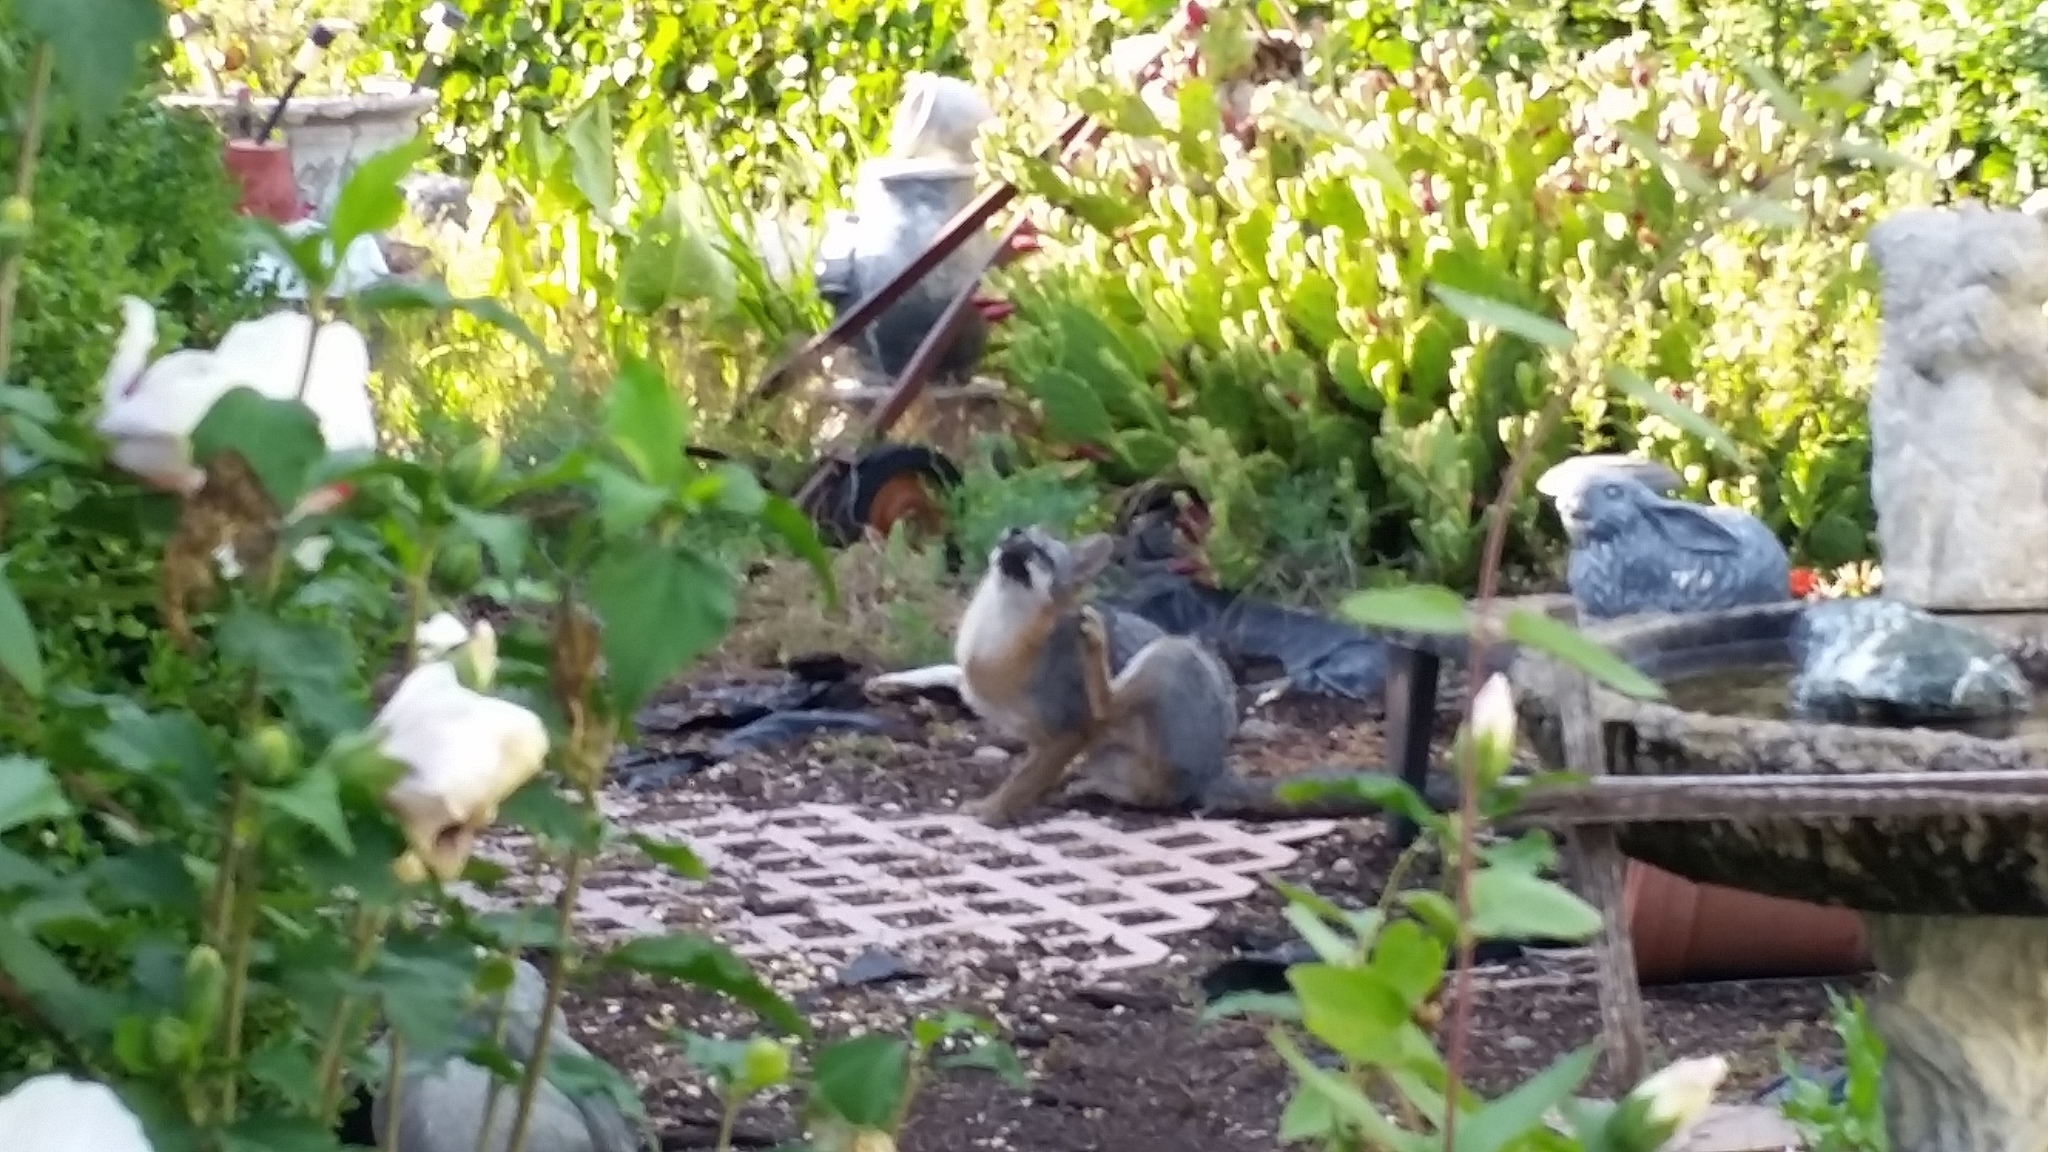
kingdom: Animalia
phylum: Chordata
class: Mammalia
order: Carnivora
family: Canidae
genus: Urocyon
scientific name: Urocyon cinereoargenteus
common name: Gray fox
